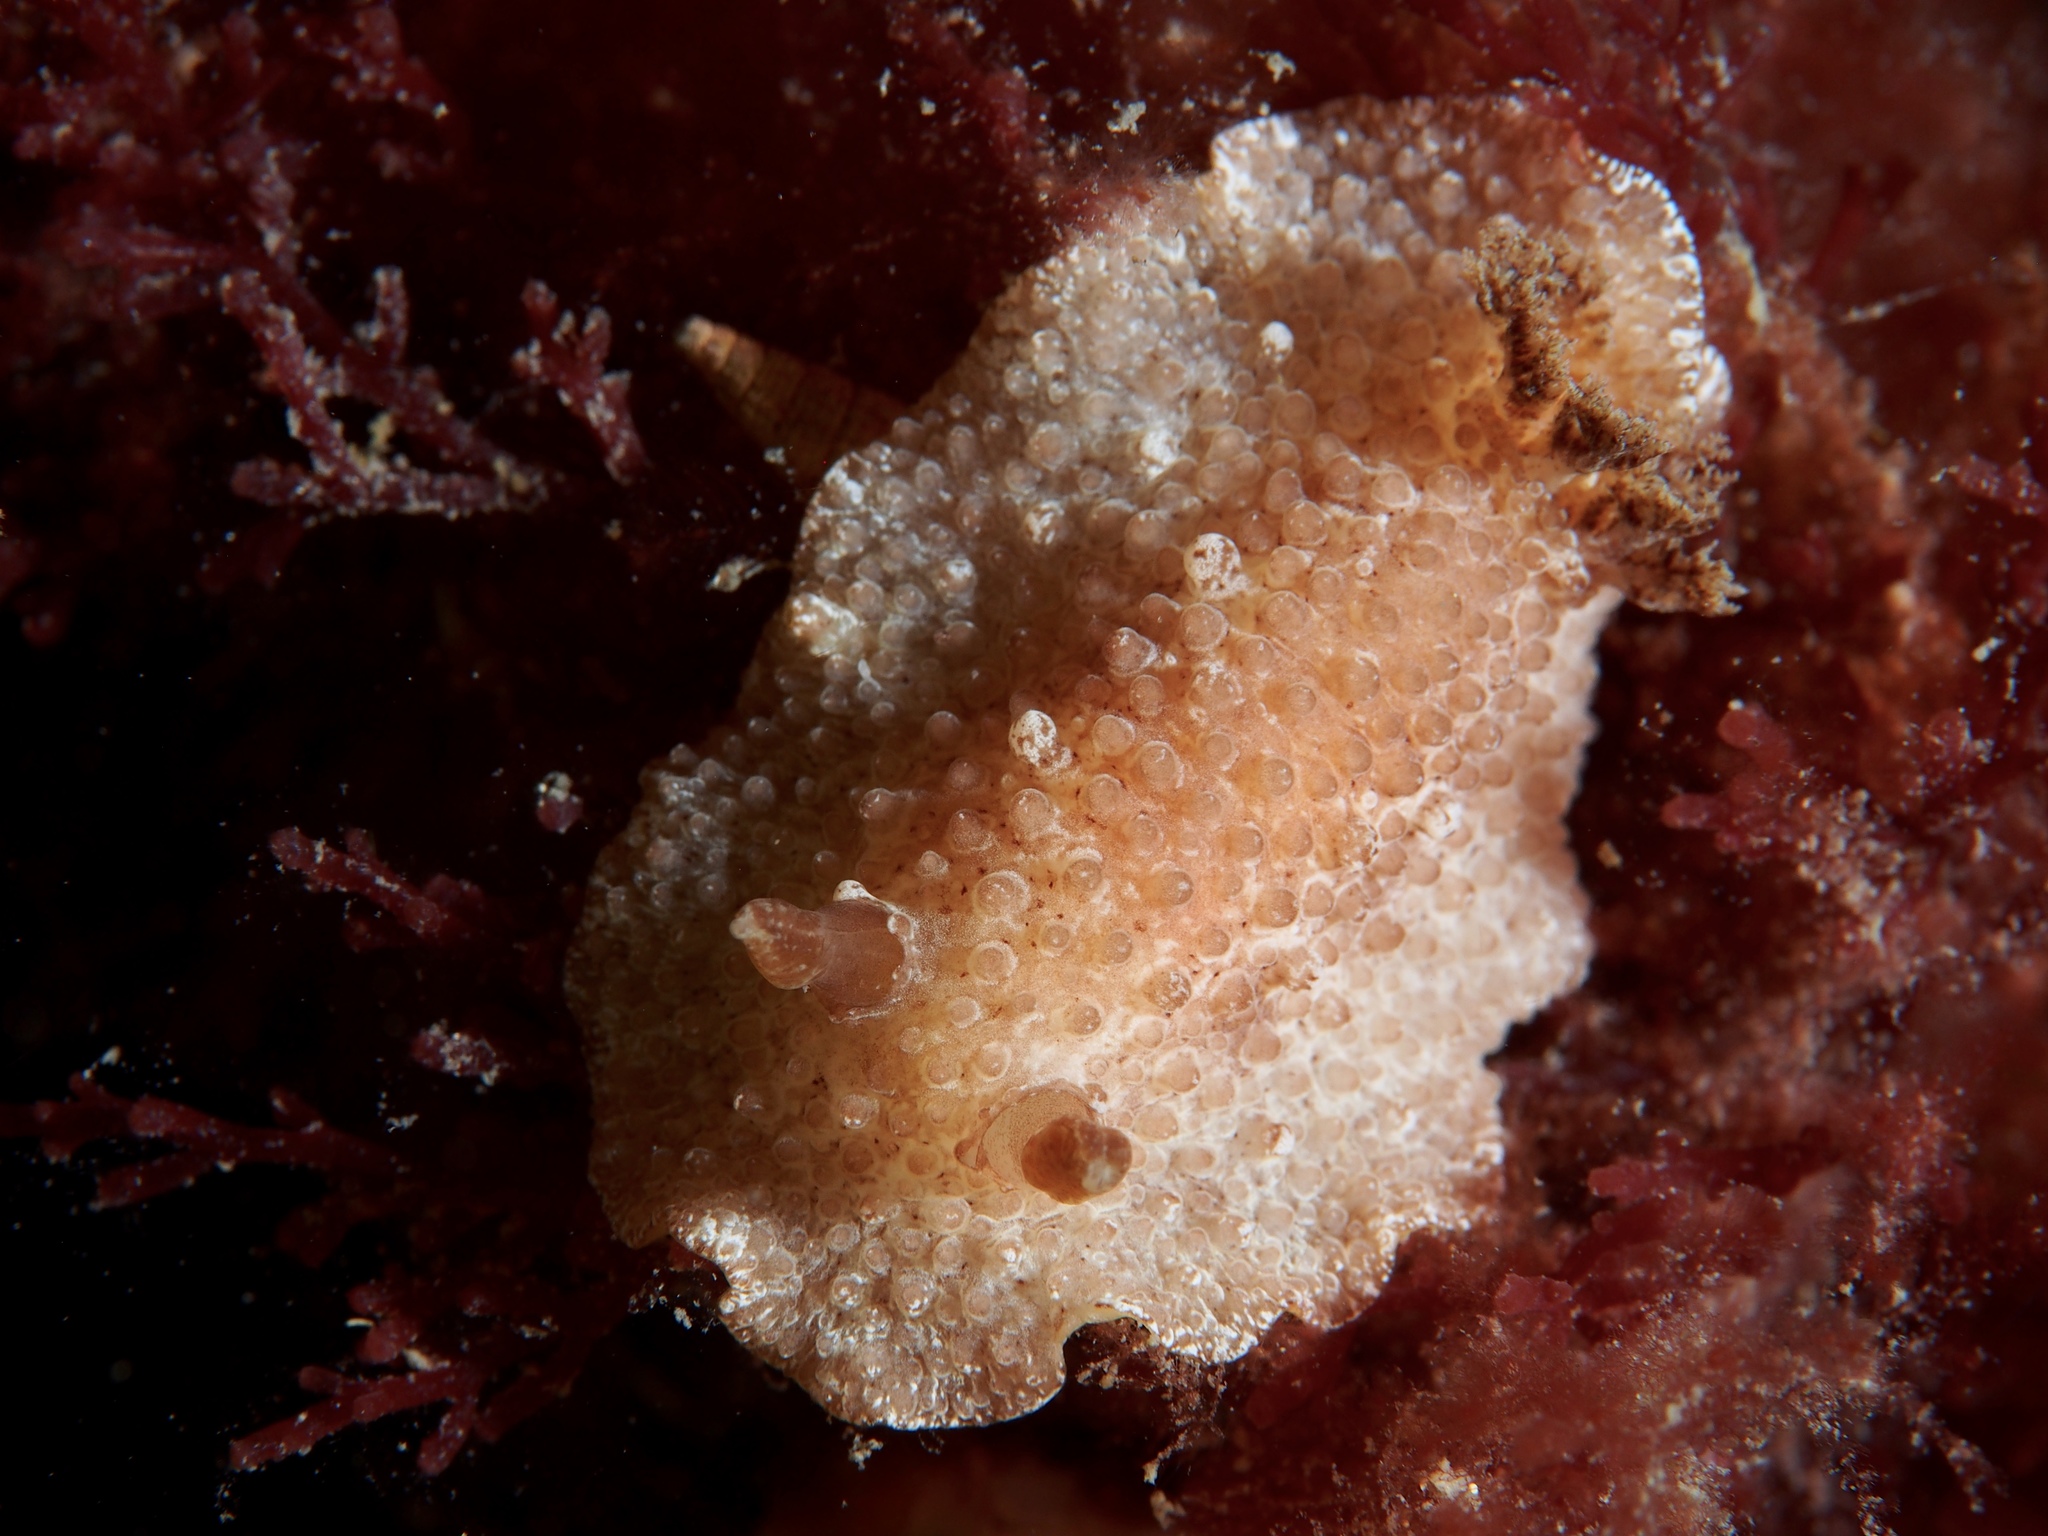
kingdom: Animalia
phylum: Mollusca
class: Gastropoda
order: Nudibranchia
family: Discodorididae
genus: Carminodoris
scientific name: Carminodoris nodulosa
